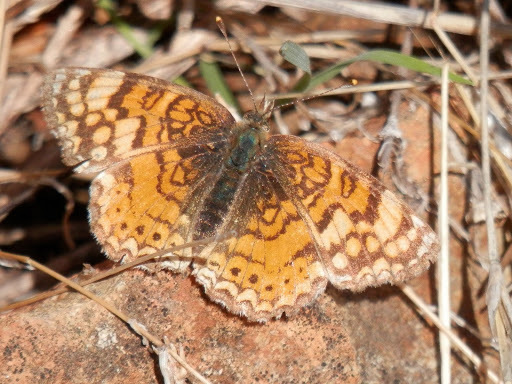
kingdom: Animalia
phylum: Arthropoda
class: Insecta
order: Lepidoptera
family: Nymphalidae
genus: Eresia
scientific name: Eresia aveyrona
